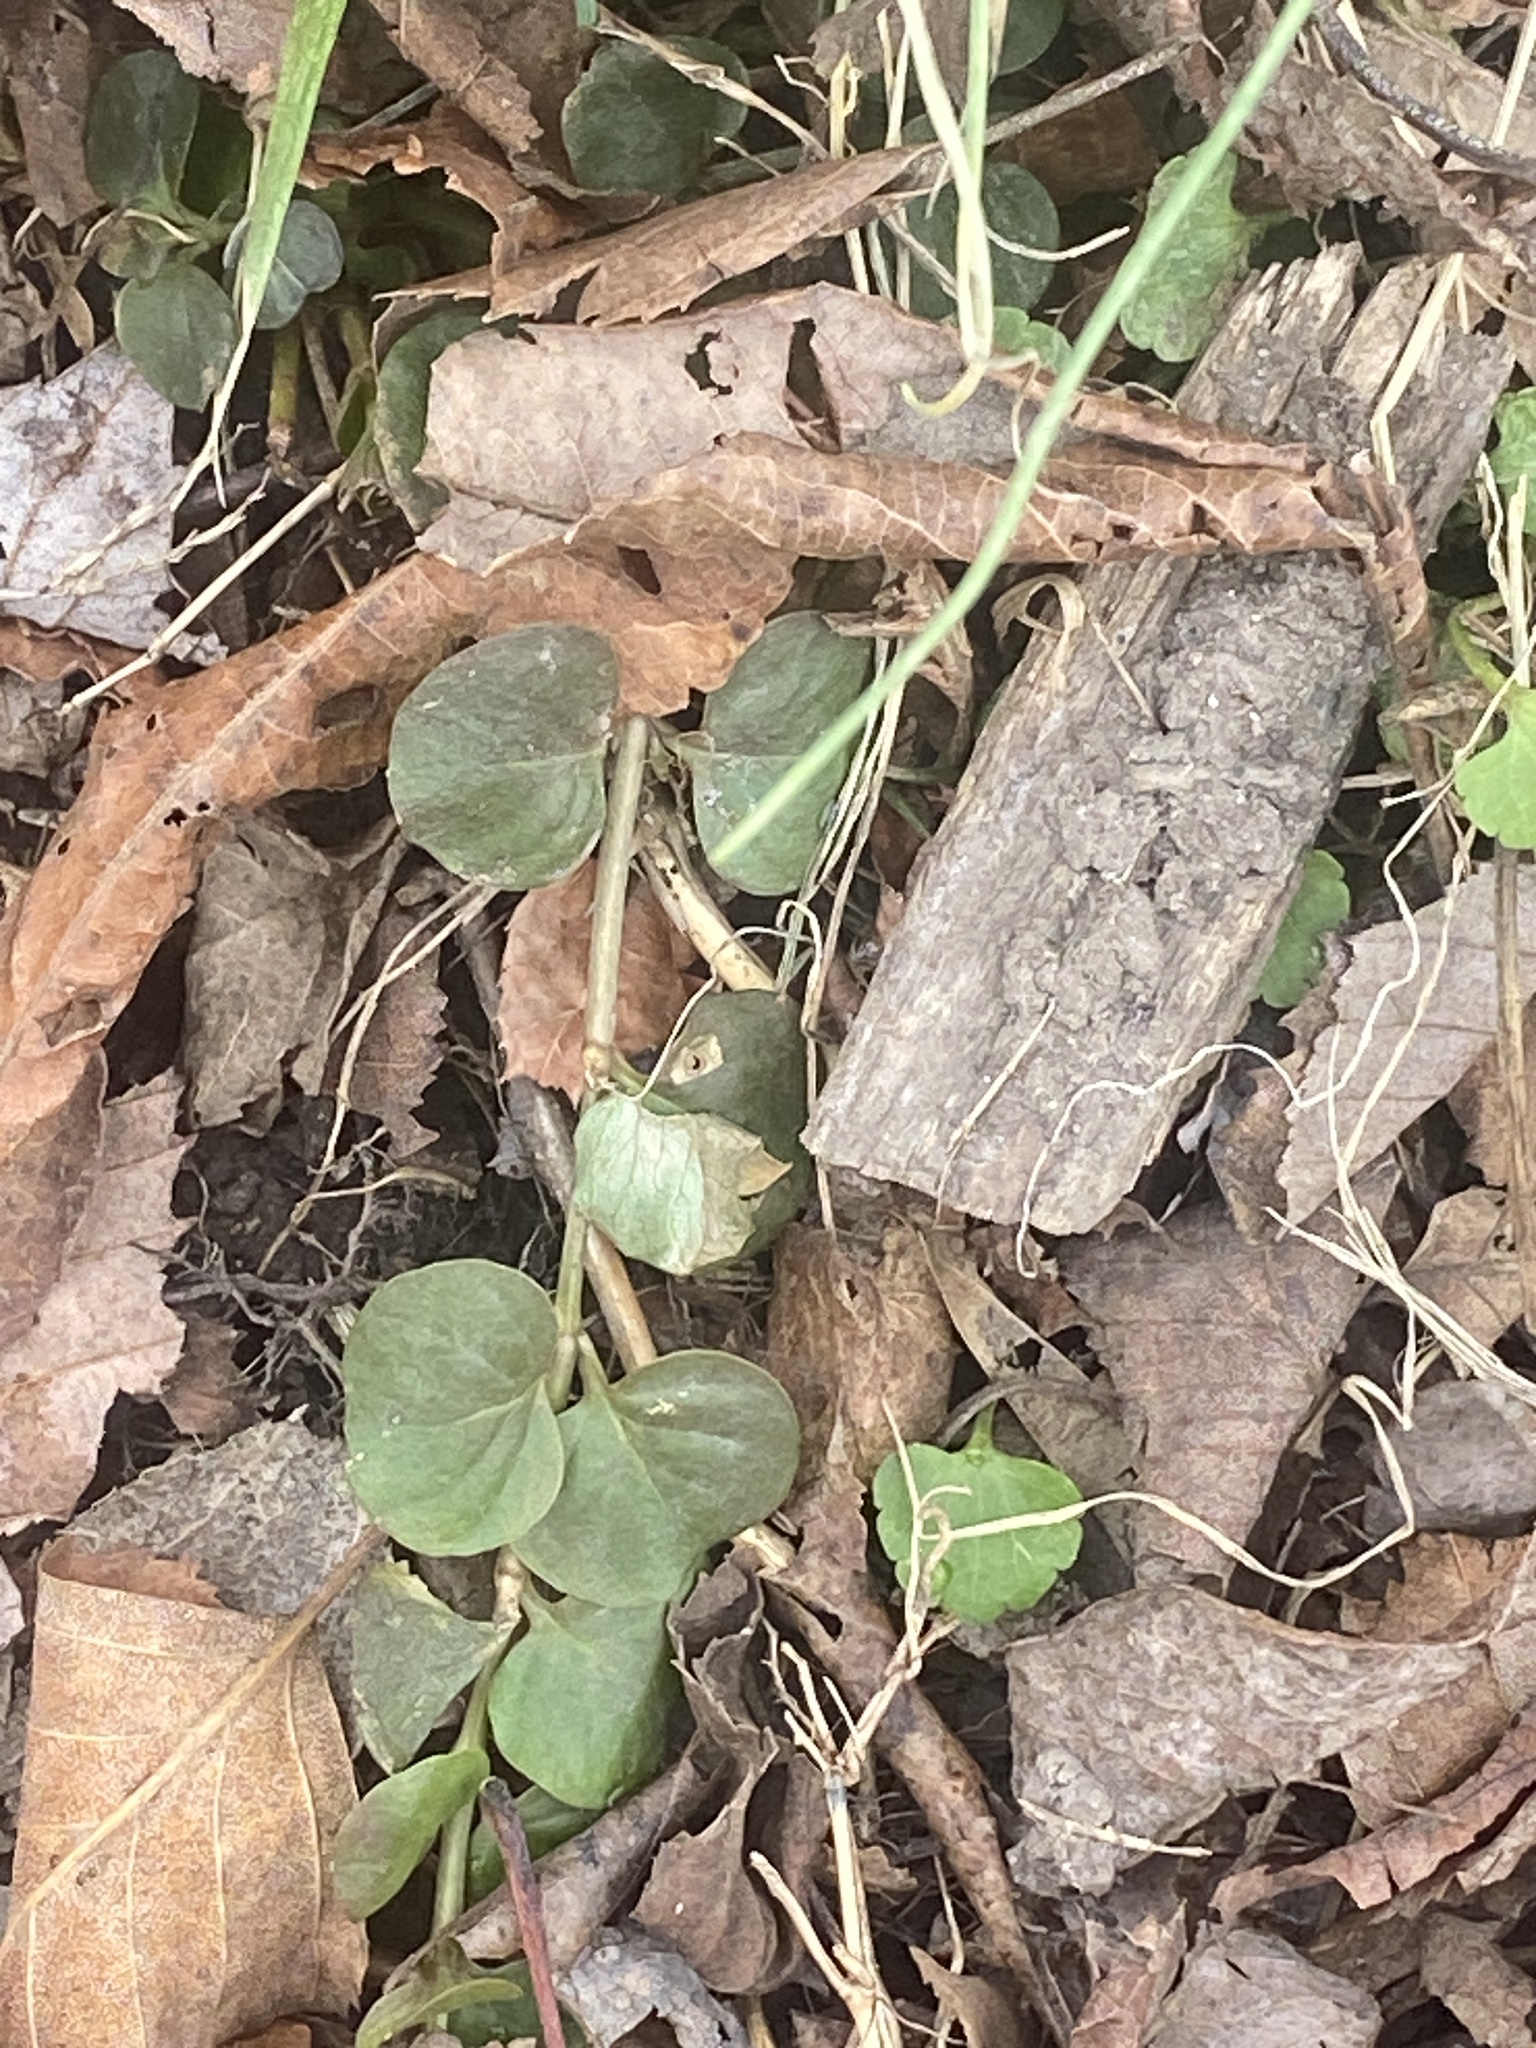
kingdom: Plantae
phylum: Tracheophyta
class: Magnoliopsida
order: Ericales
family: Primulaceae
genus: Lysimachia
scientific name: Lysimachia nummularia
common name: Moneywort
